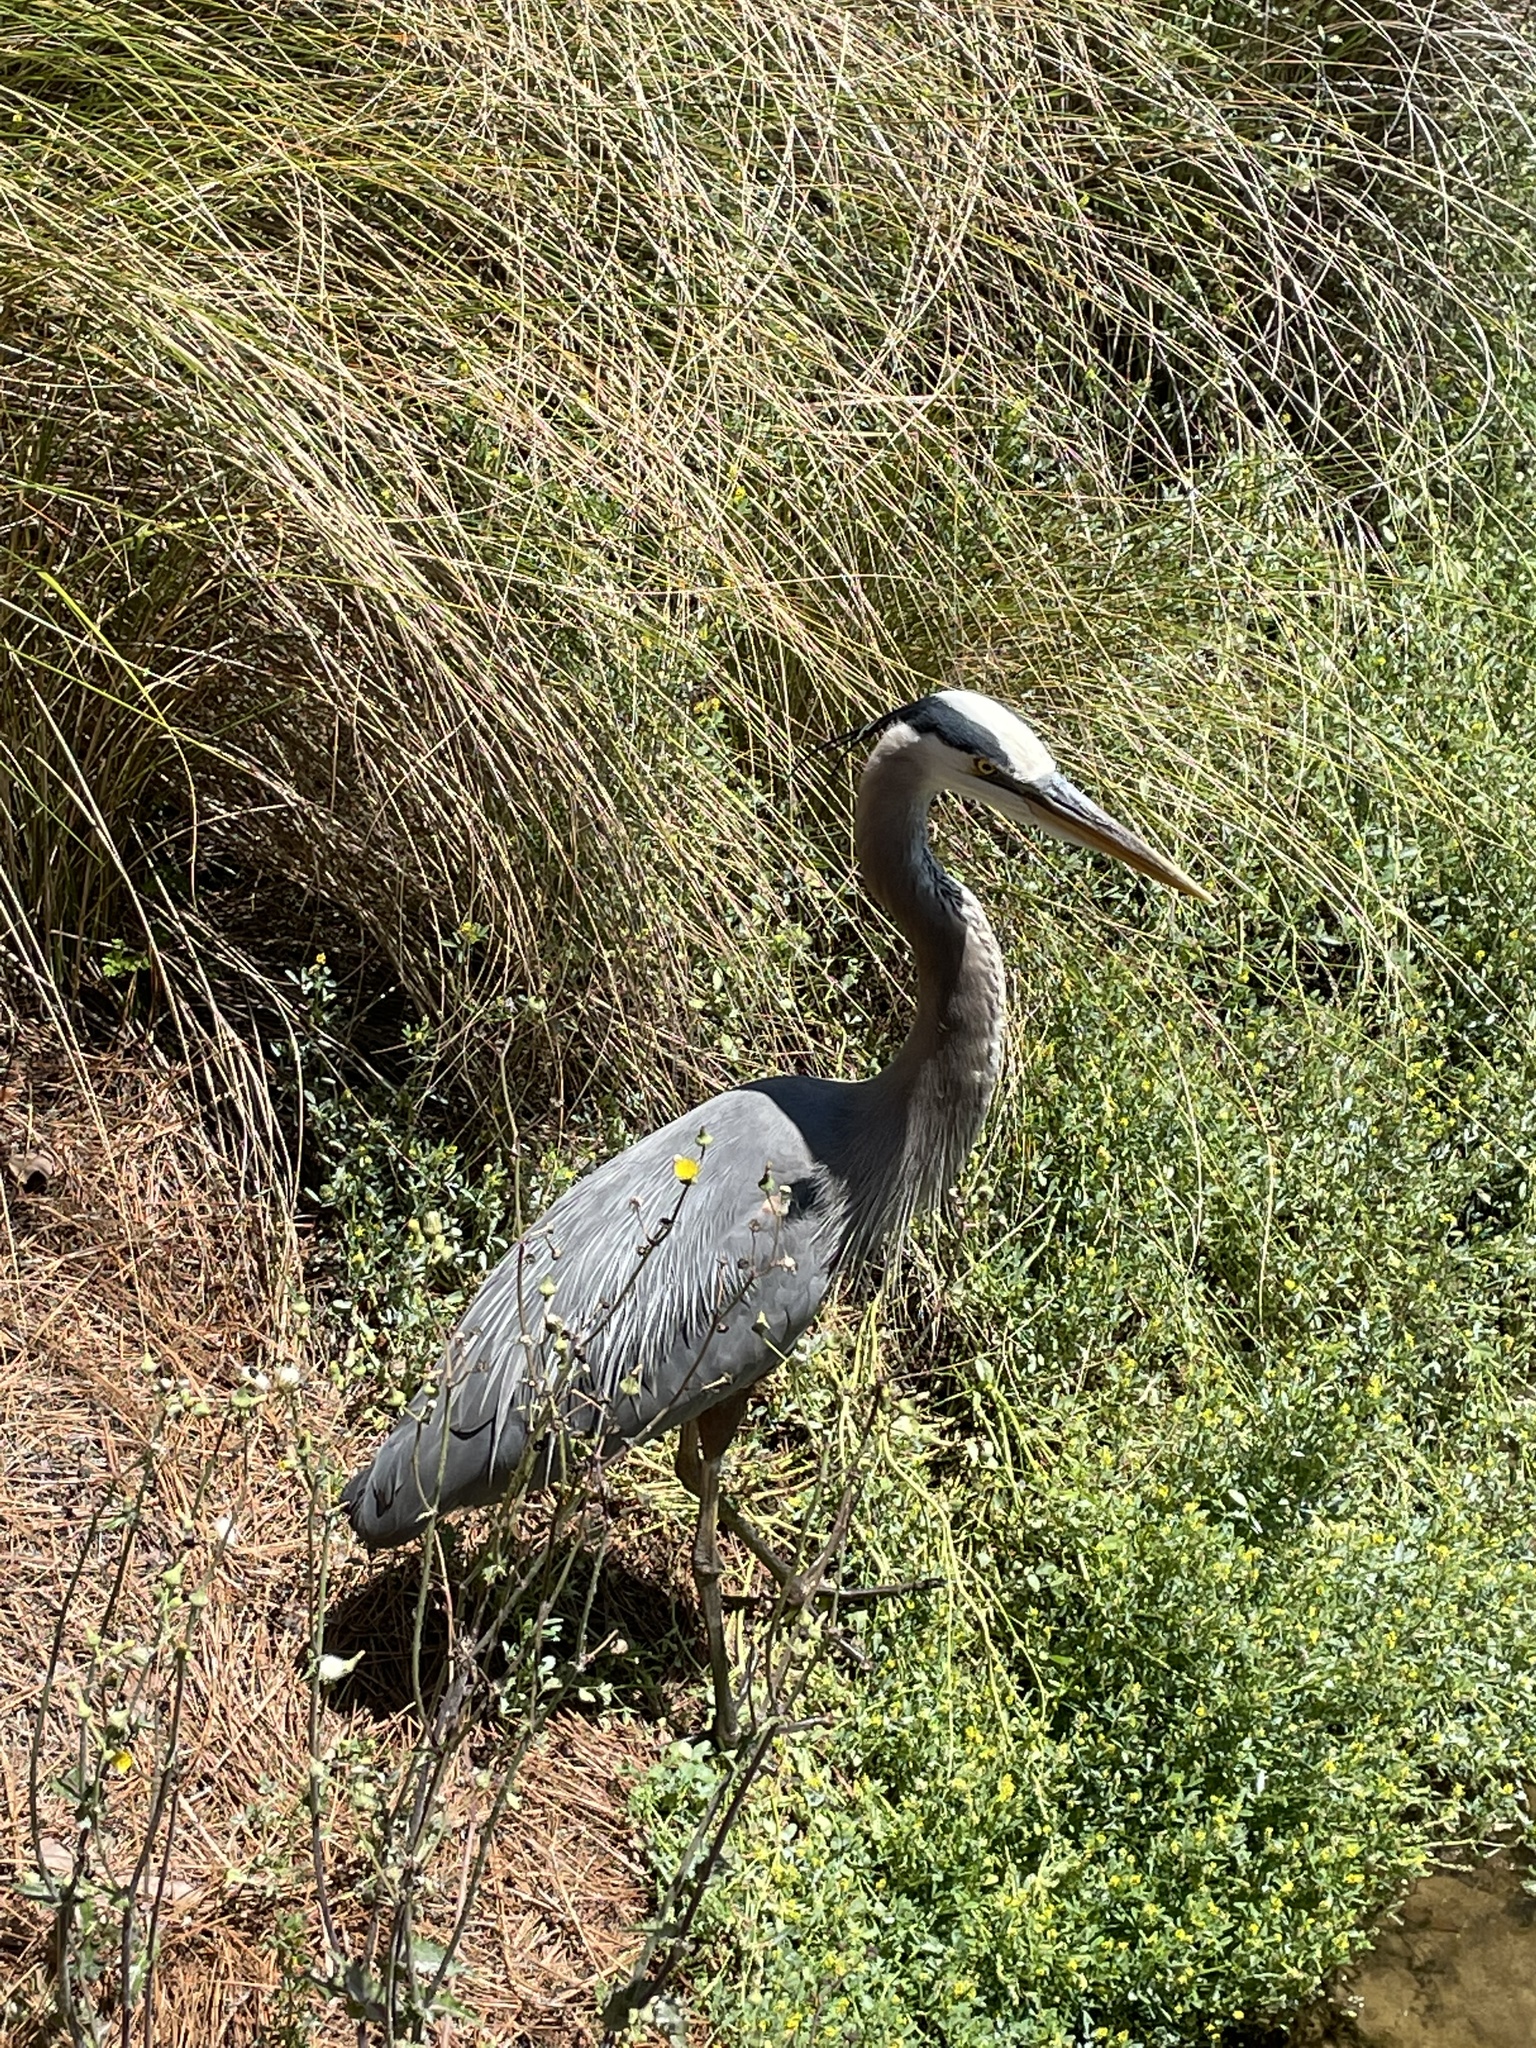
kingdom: Animalia
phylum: Chordata
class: Aves
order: Pelecaniformes
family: Ardeidae
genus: Ardea
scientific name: Ardea herodias
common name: Great blue heron
